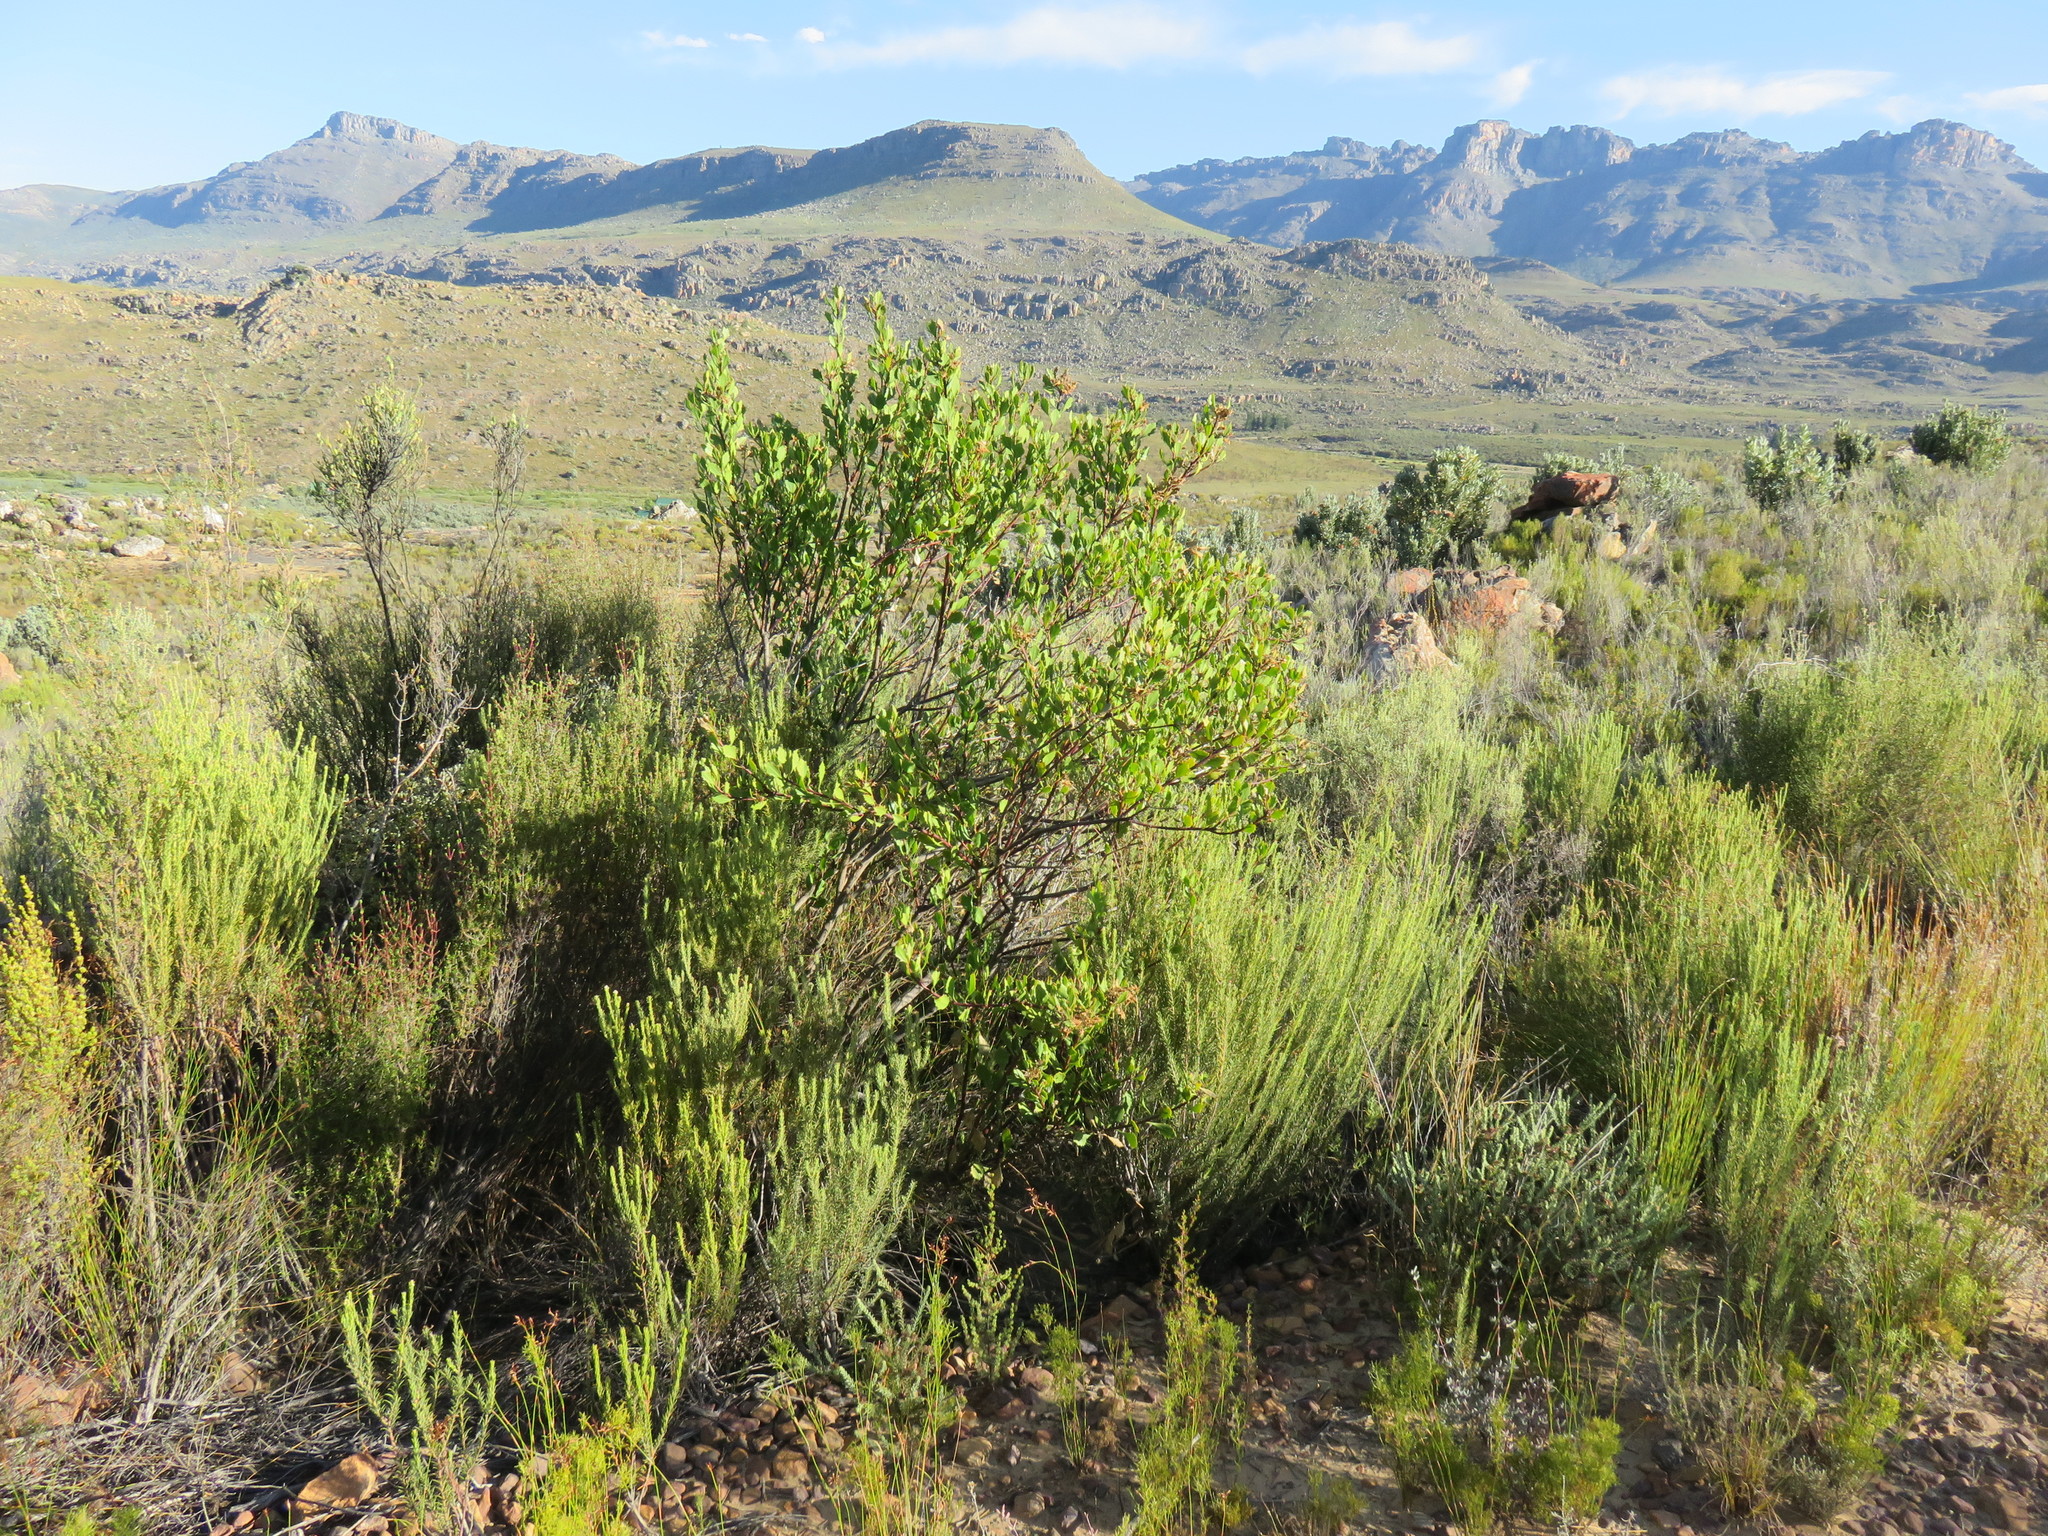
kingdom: Plantae
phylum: Tracheophyta
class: Magnoliopsida
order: Asterales
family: Asteraceae
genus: Osteospermum
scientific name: Osteospermum moniliferum
